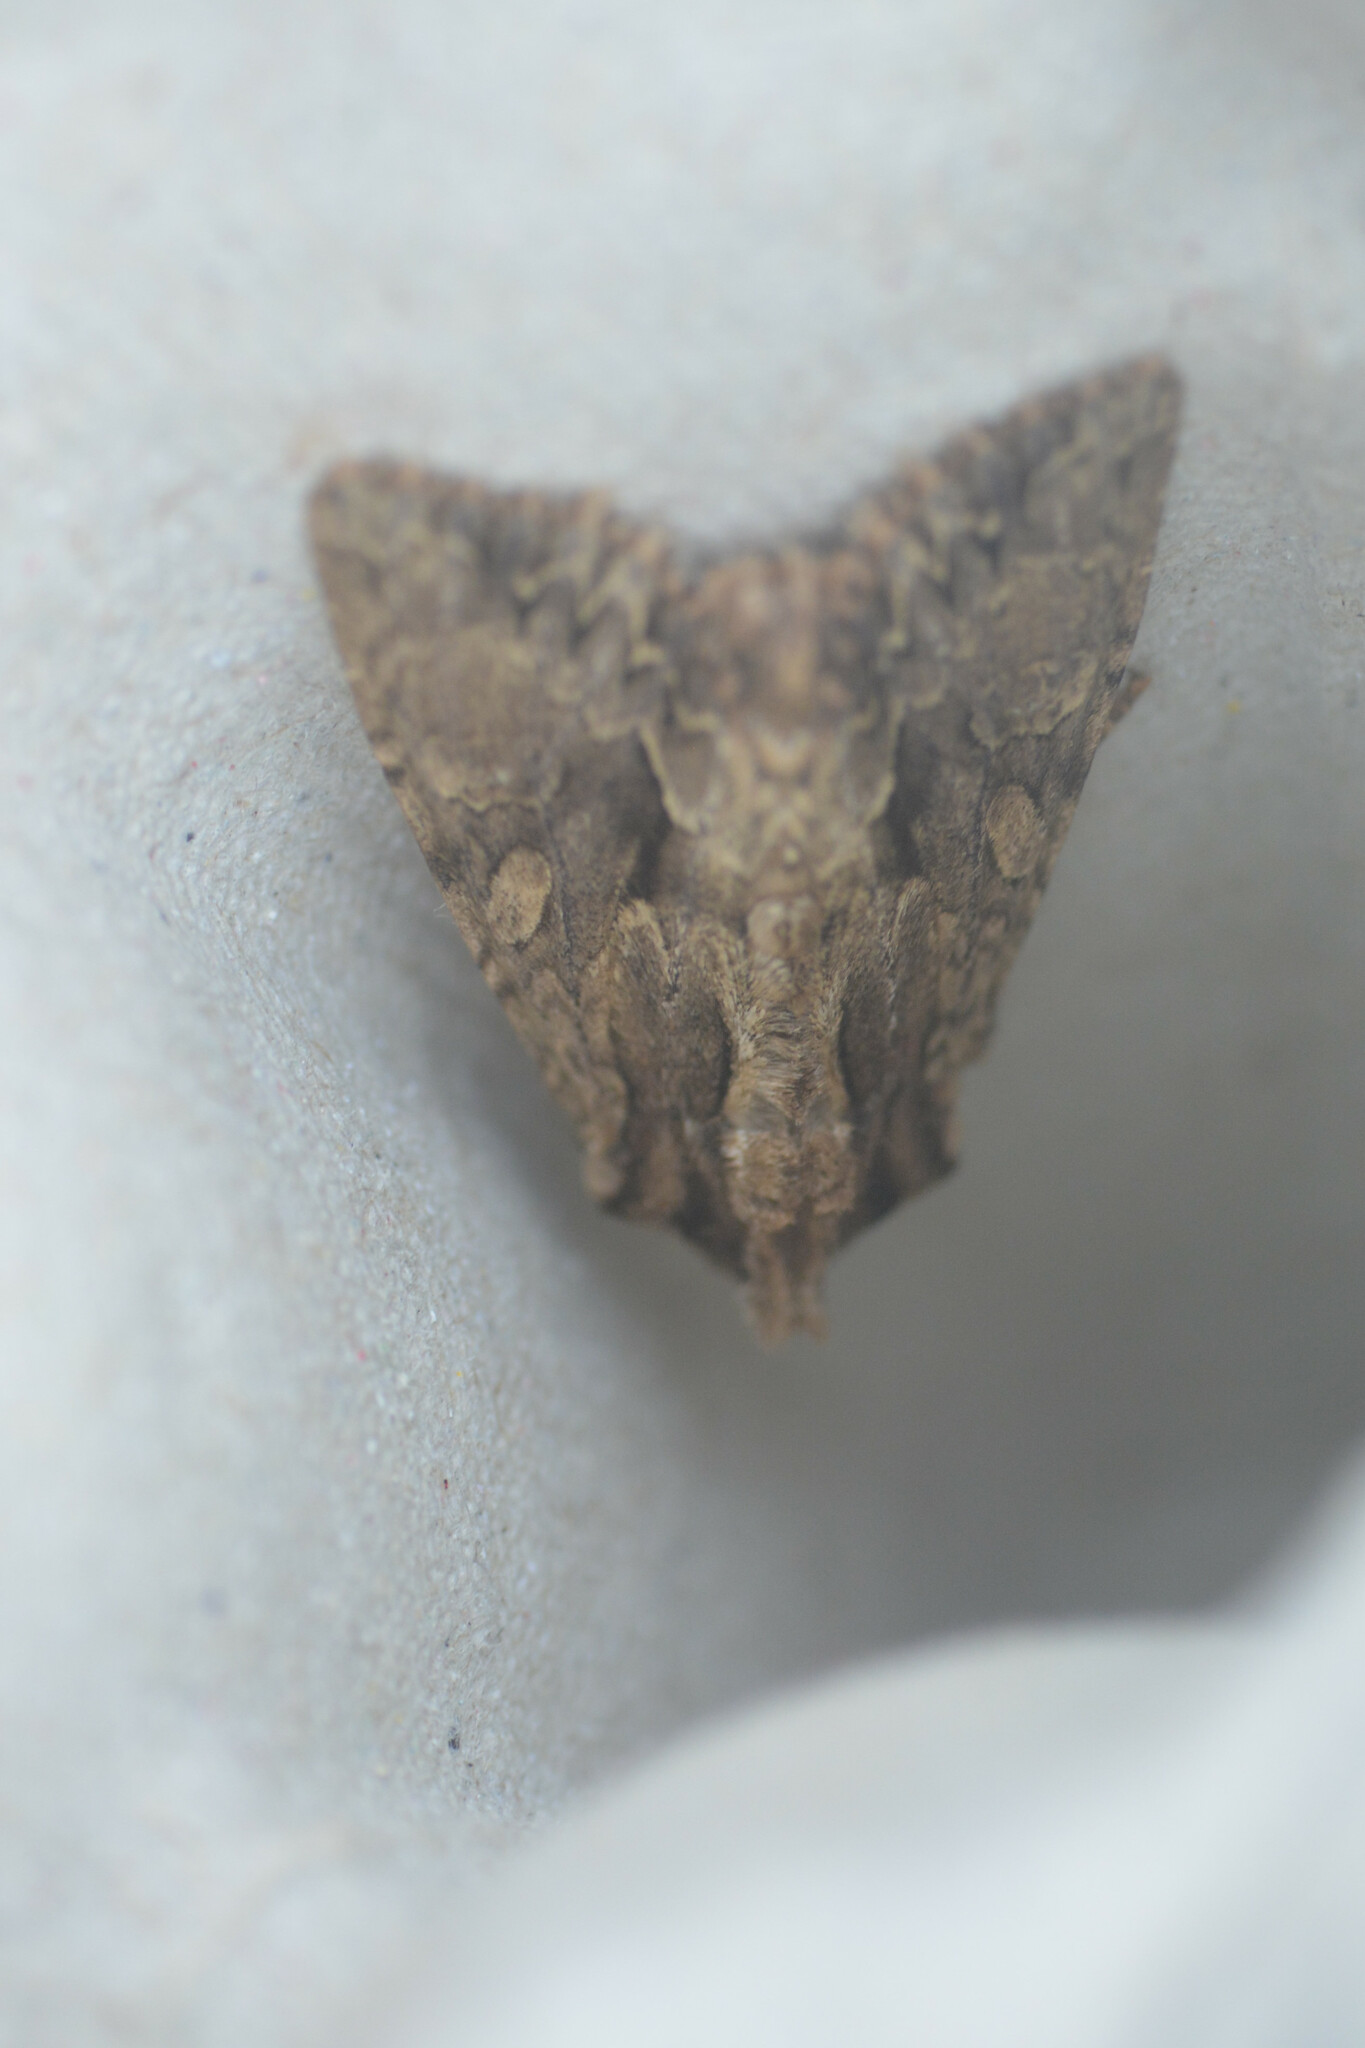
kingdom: Animalia
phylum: Arthropoda
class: Insecta
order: Lepidoptera
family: Noctuidae
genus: Apamea
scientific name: Apamea monoglypha
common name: Dark arches
